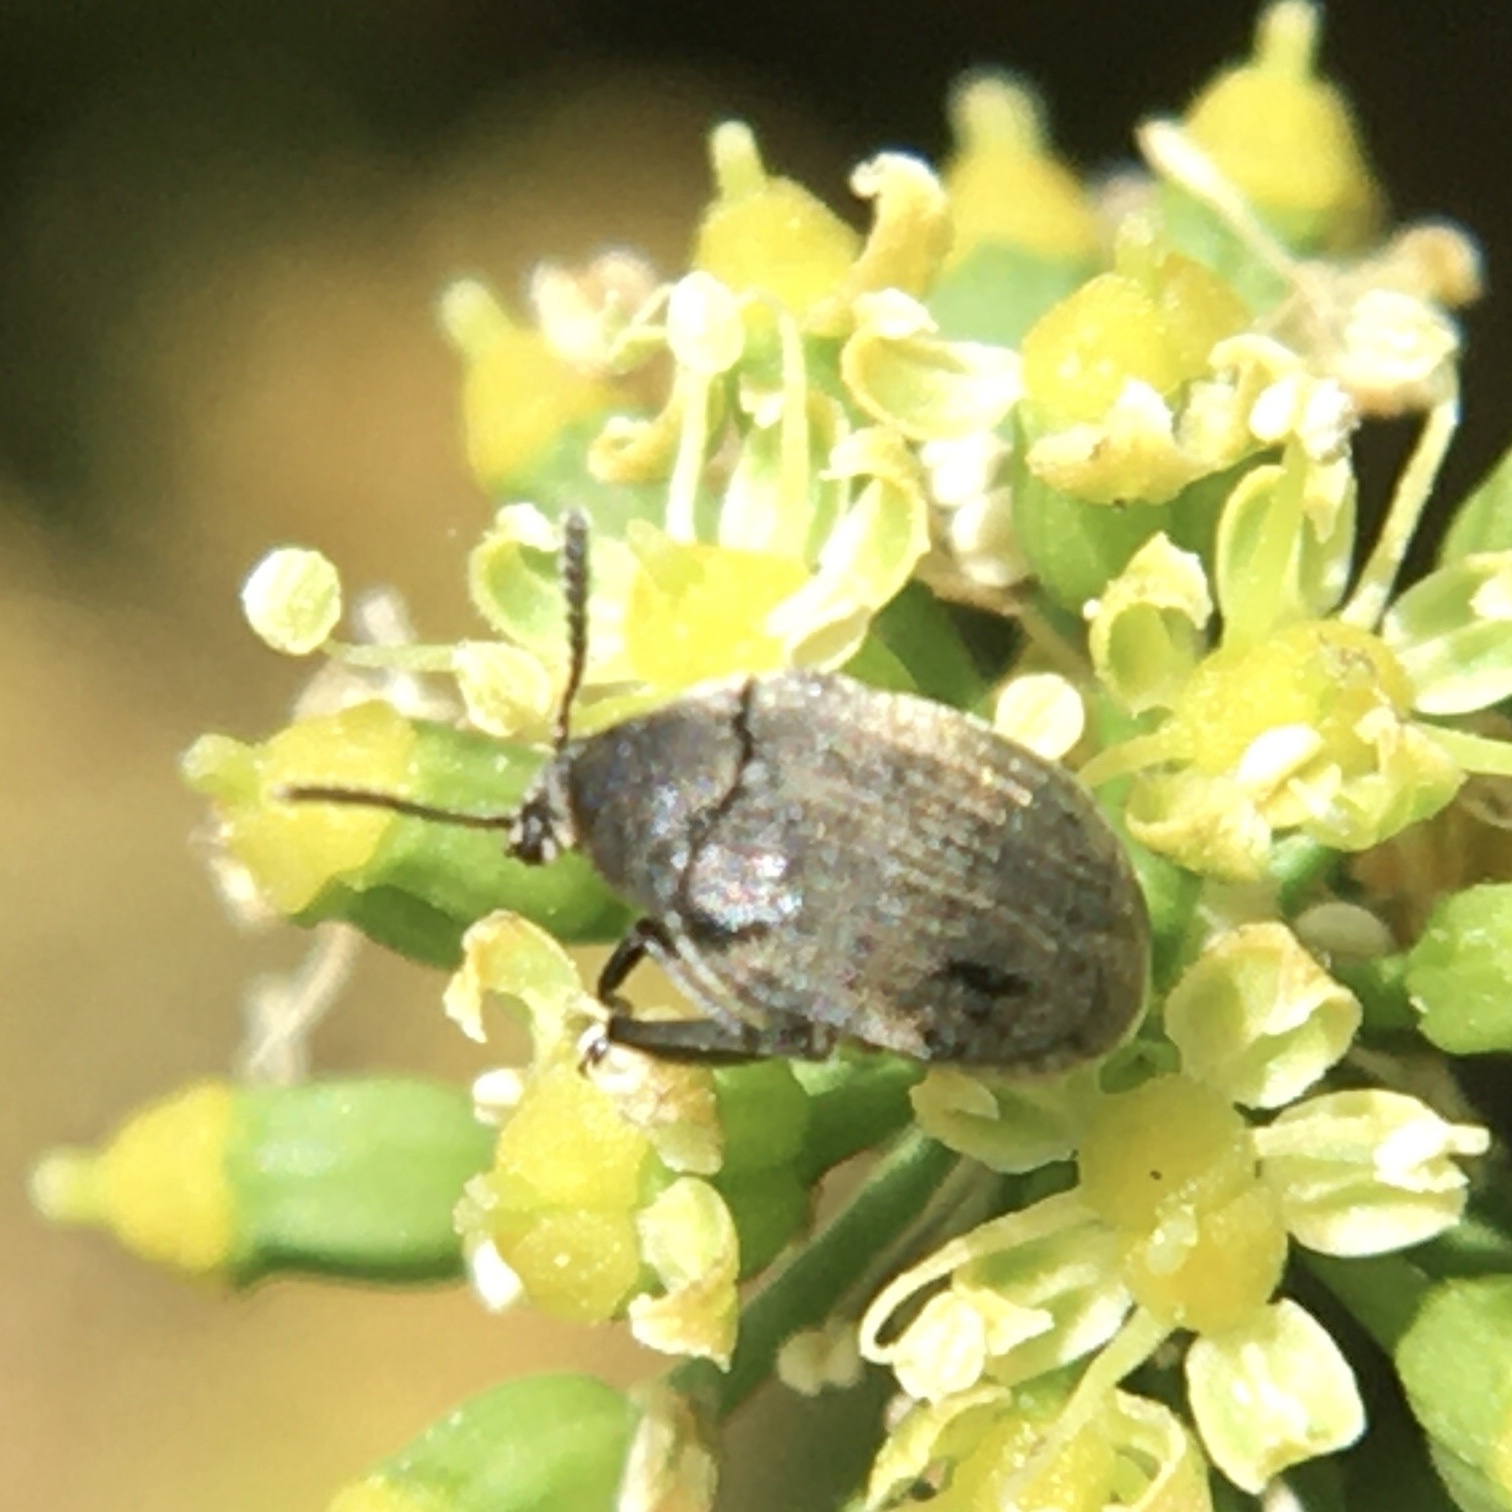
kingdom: Animalia
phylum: Arthropoda
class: Insecta
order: Coleoptera
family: Chrysomelidae
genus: Bruchidius
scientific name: Bruchidius villosus
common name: Scotch broom bruchid
